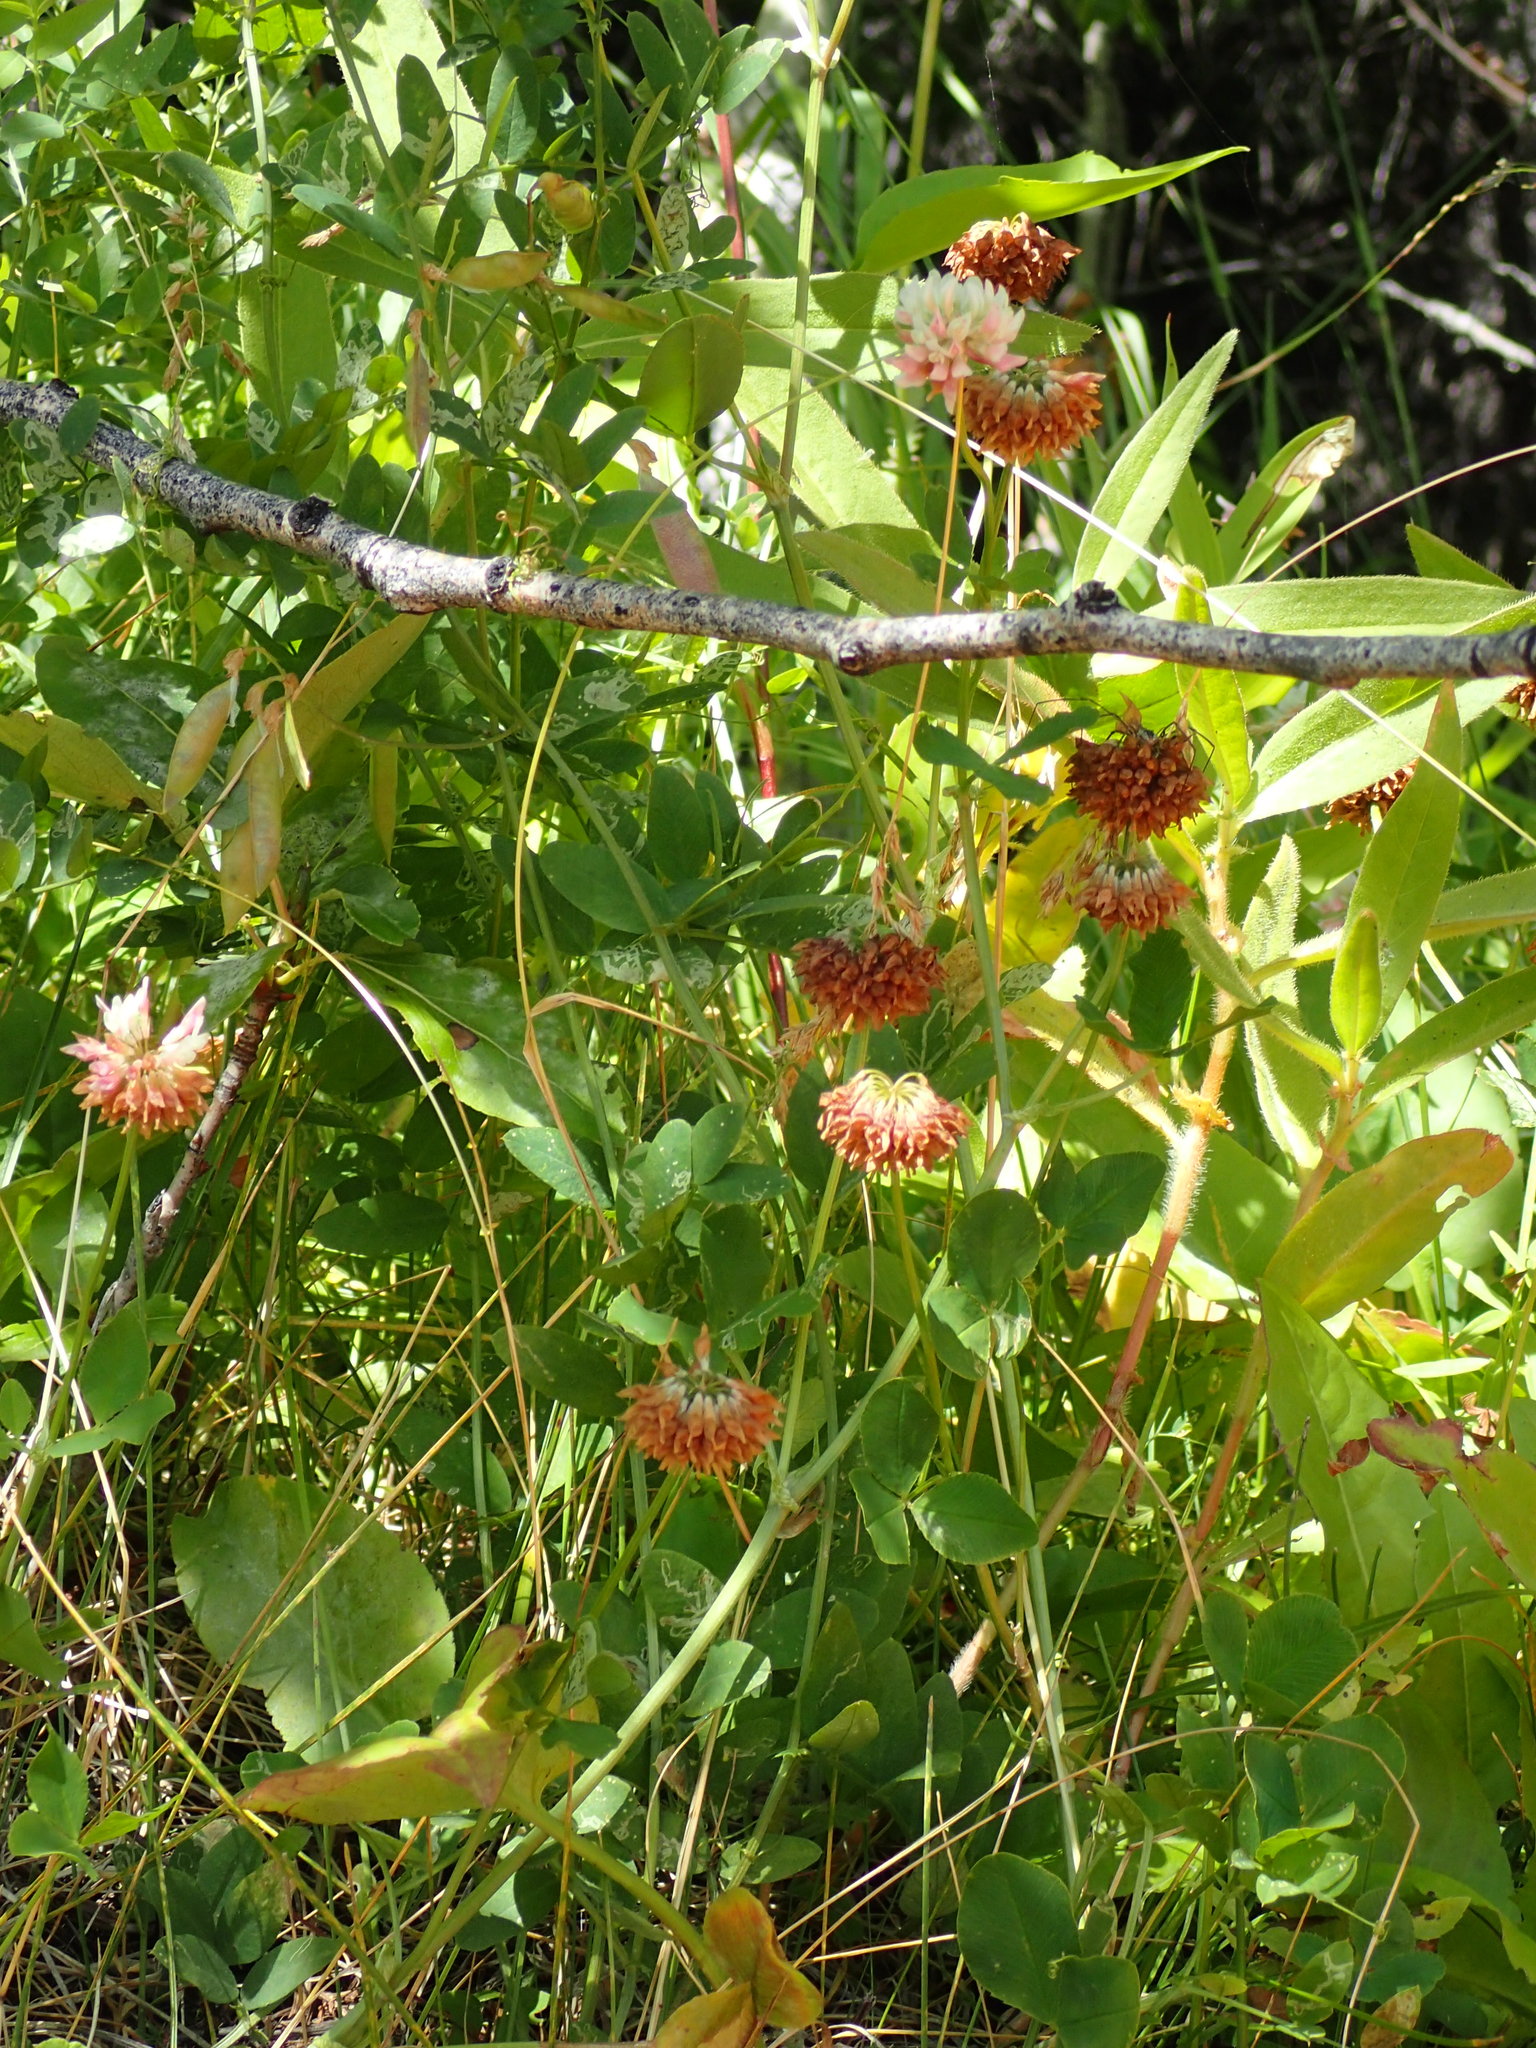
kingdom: Plantae
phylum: Tracheophyta
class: Magnoliopsida
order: Fabales
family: Fabaceae
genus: Trifolium
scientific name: Trifolium hybridum
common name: Alsike clover
